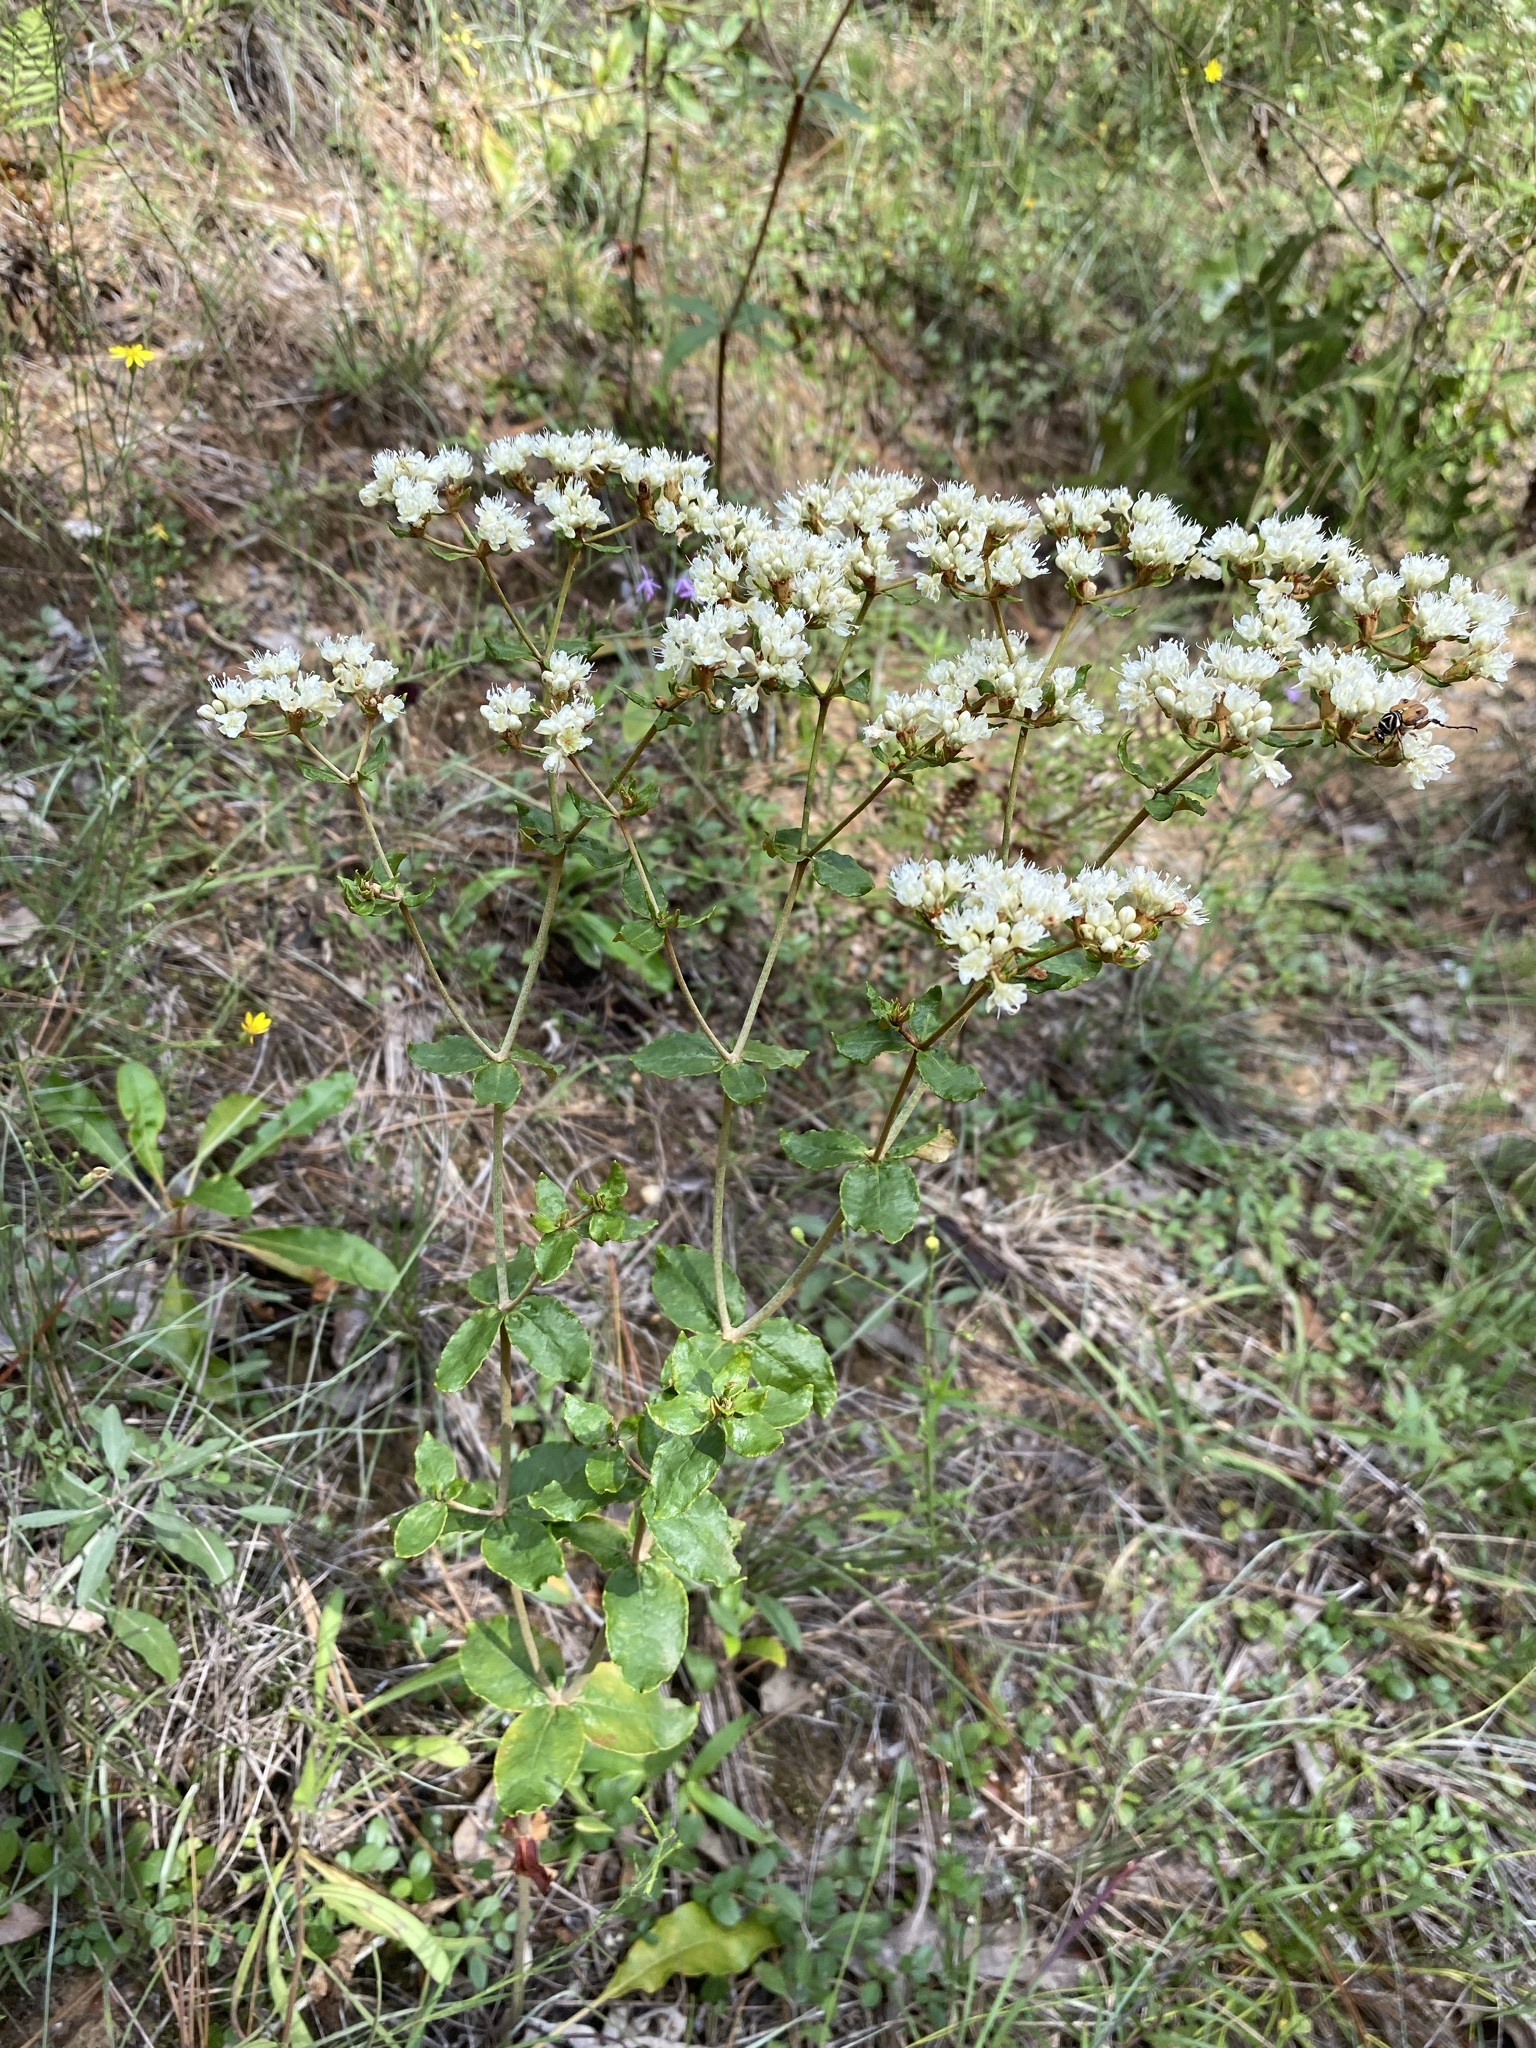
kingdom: Plantae
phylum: Tracheophyta
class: Magnoliopsida
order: Caryophyllales
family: Polygonaceae
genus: Eriogonum
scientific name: Eriogonum tomentosum
